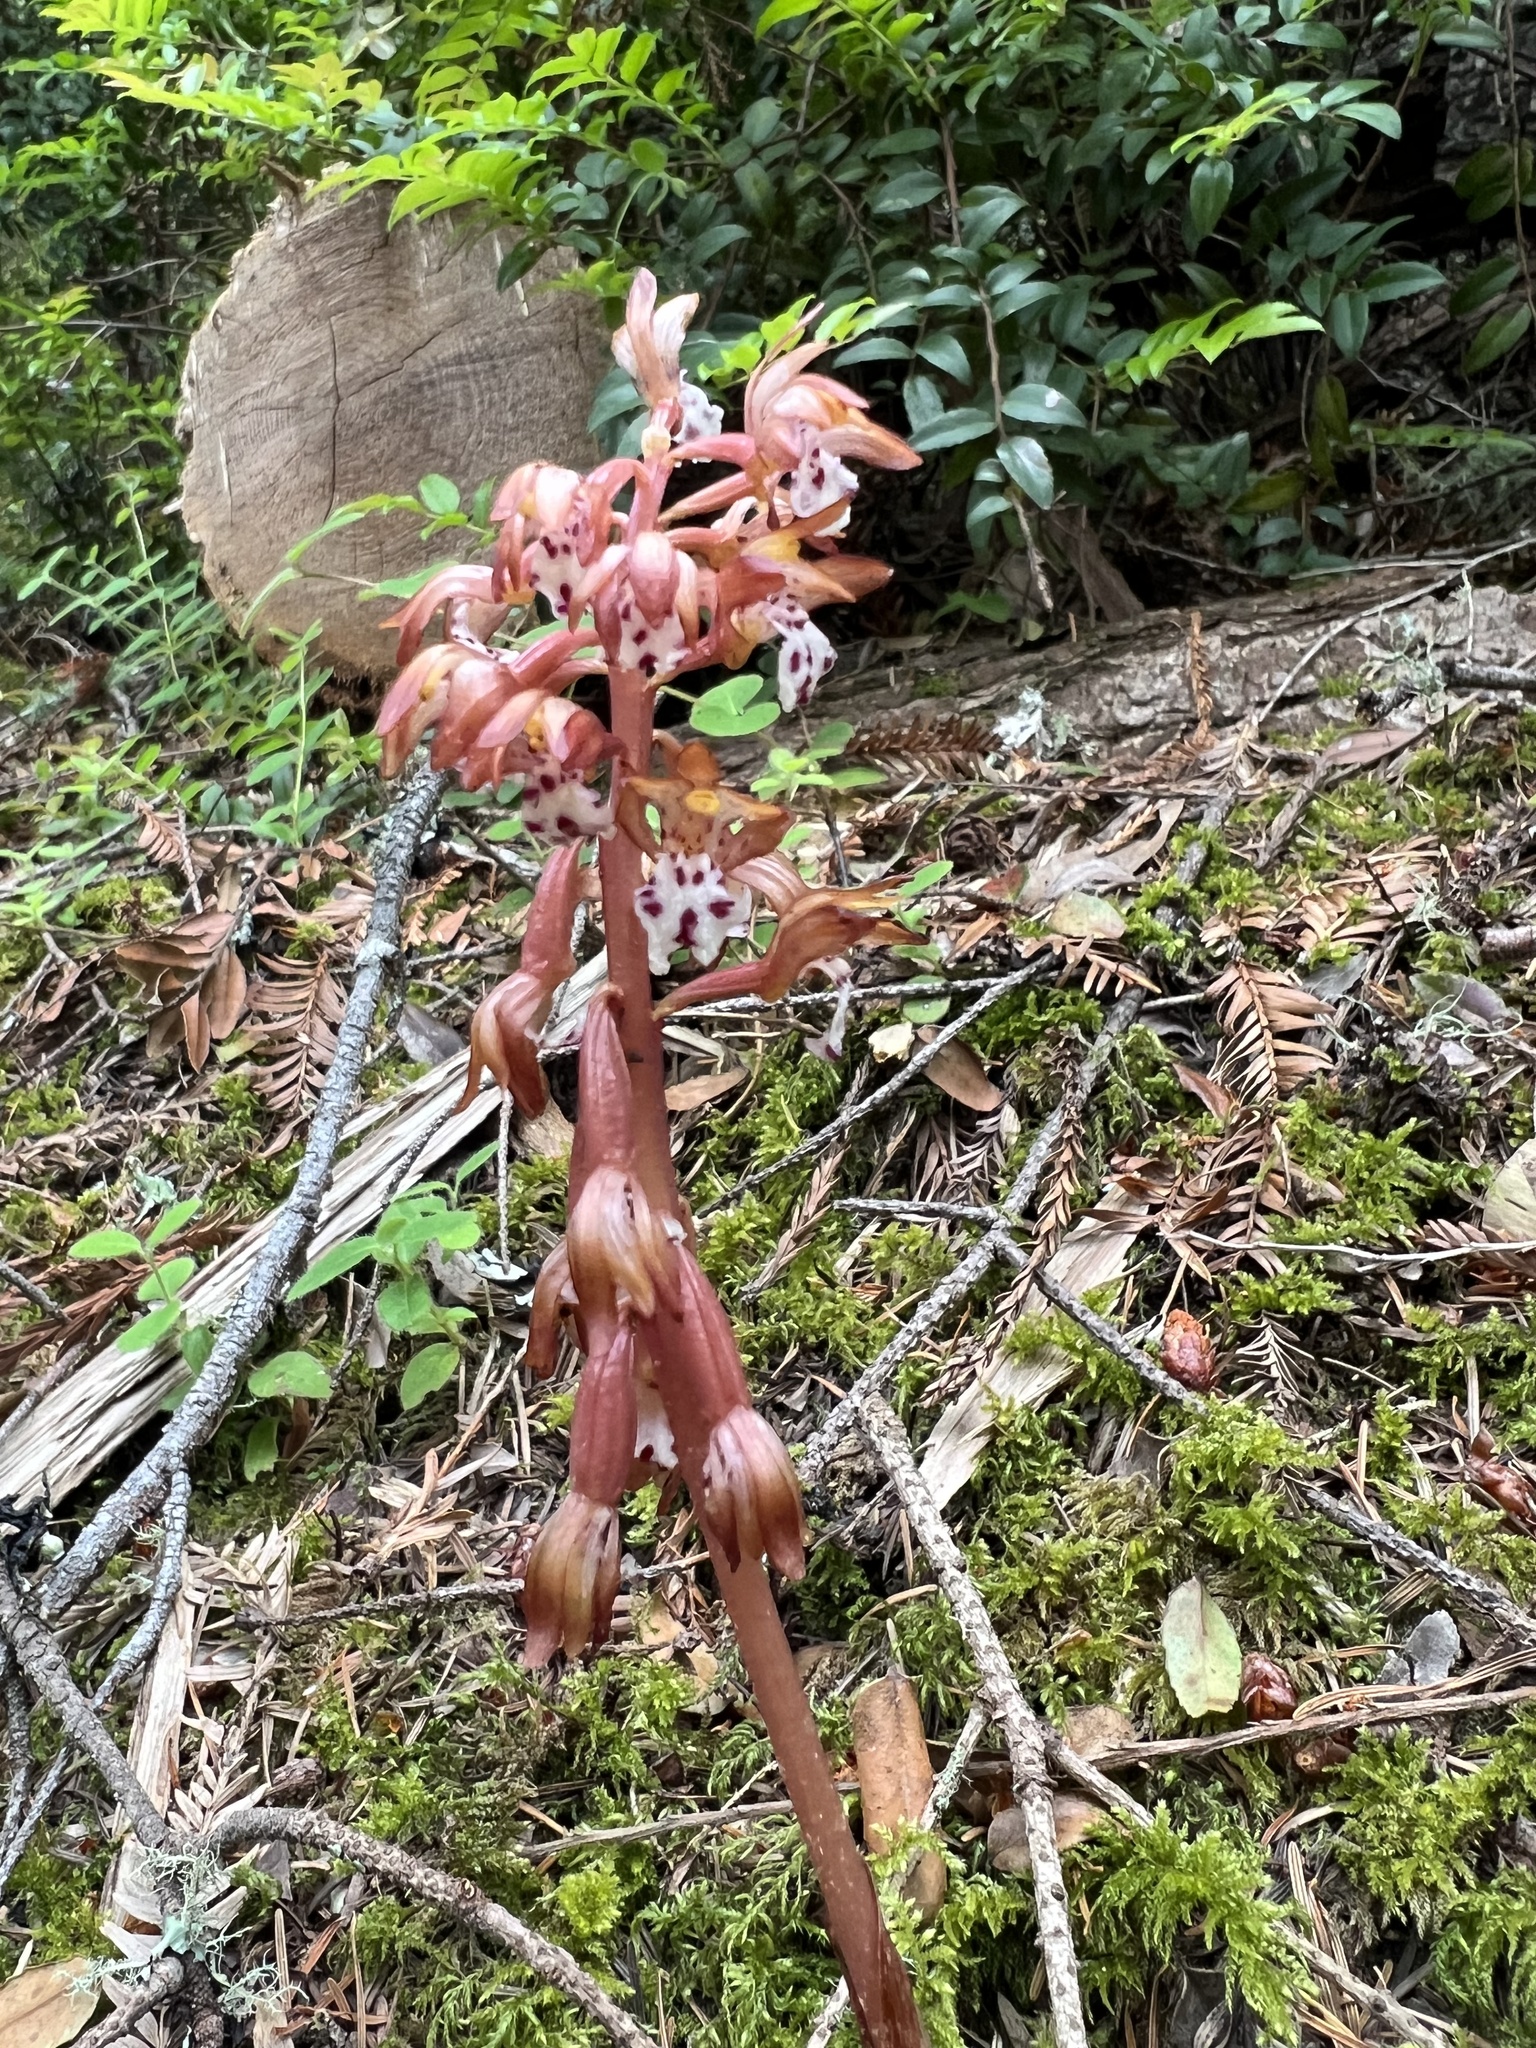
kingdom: Plantae
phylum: Tracheophyta
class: Liliopsida
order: Asparagales
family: Orchidaceae
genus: Corallorhiza
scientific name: Corallorhiza maculata
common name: Spotted coralroot
